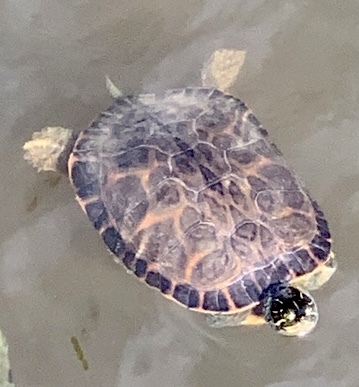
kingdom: Animalia
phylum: Chordata
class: Testudines
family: Emydidae
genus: Pseudemys
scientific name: Pseudemys concinna
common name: Eastern river cooter
